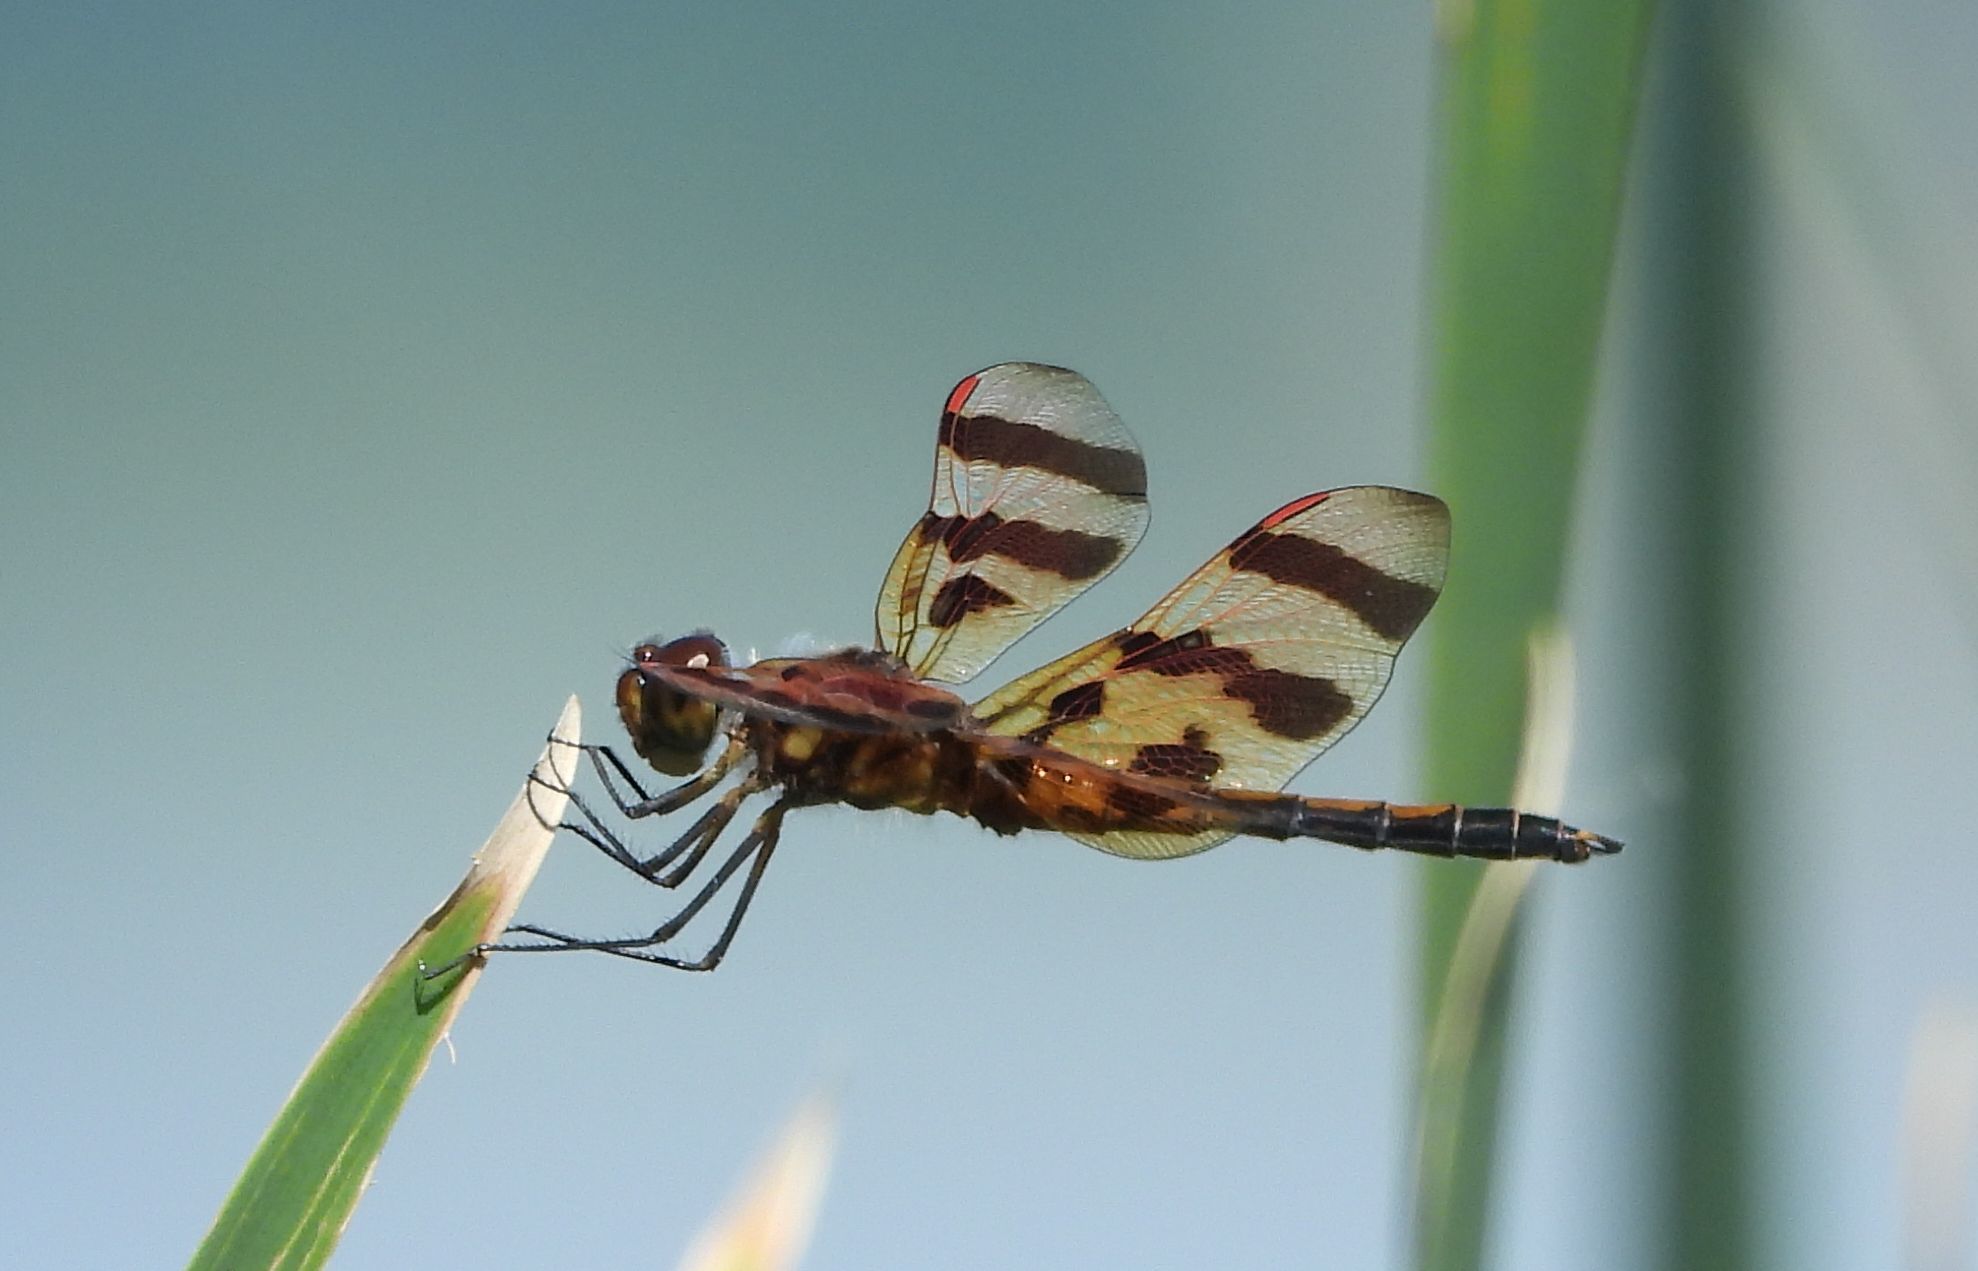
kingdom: Animalia
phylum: Arthropoda
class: Insecta
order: Odonata
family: Libellulidae
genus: Celithemis
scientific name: Celithemis eponina
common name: Halloween pennant
